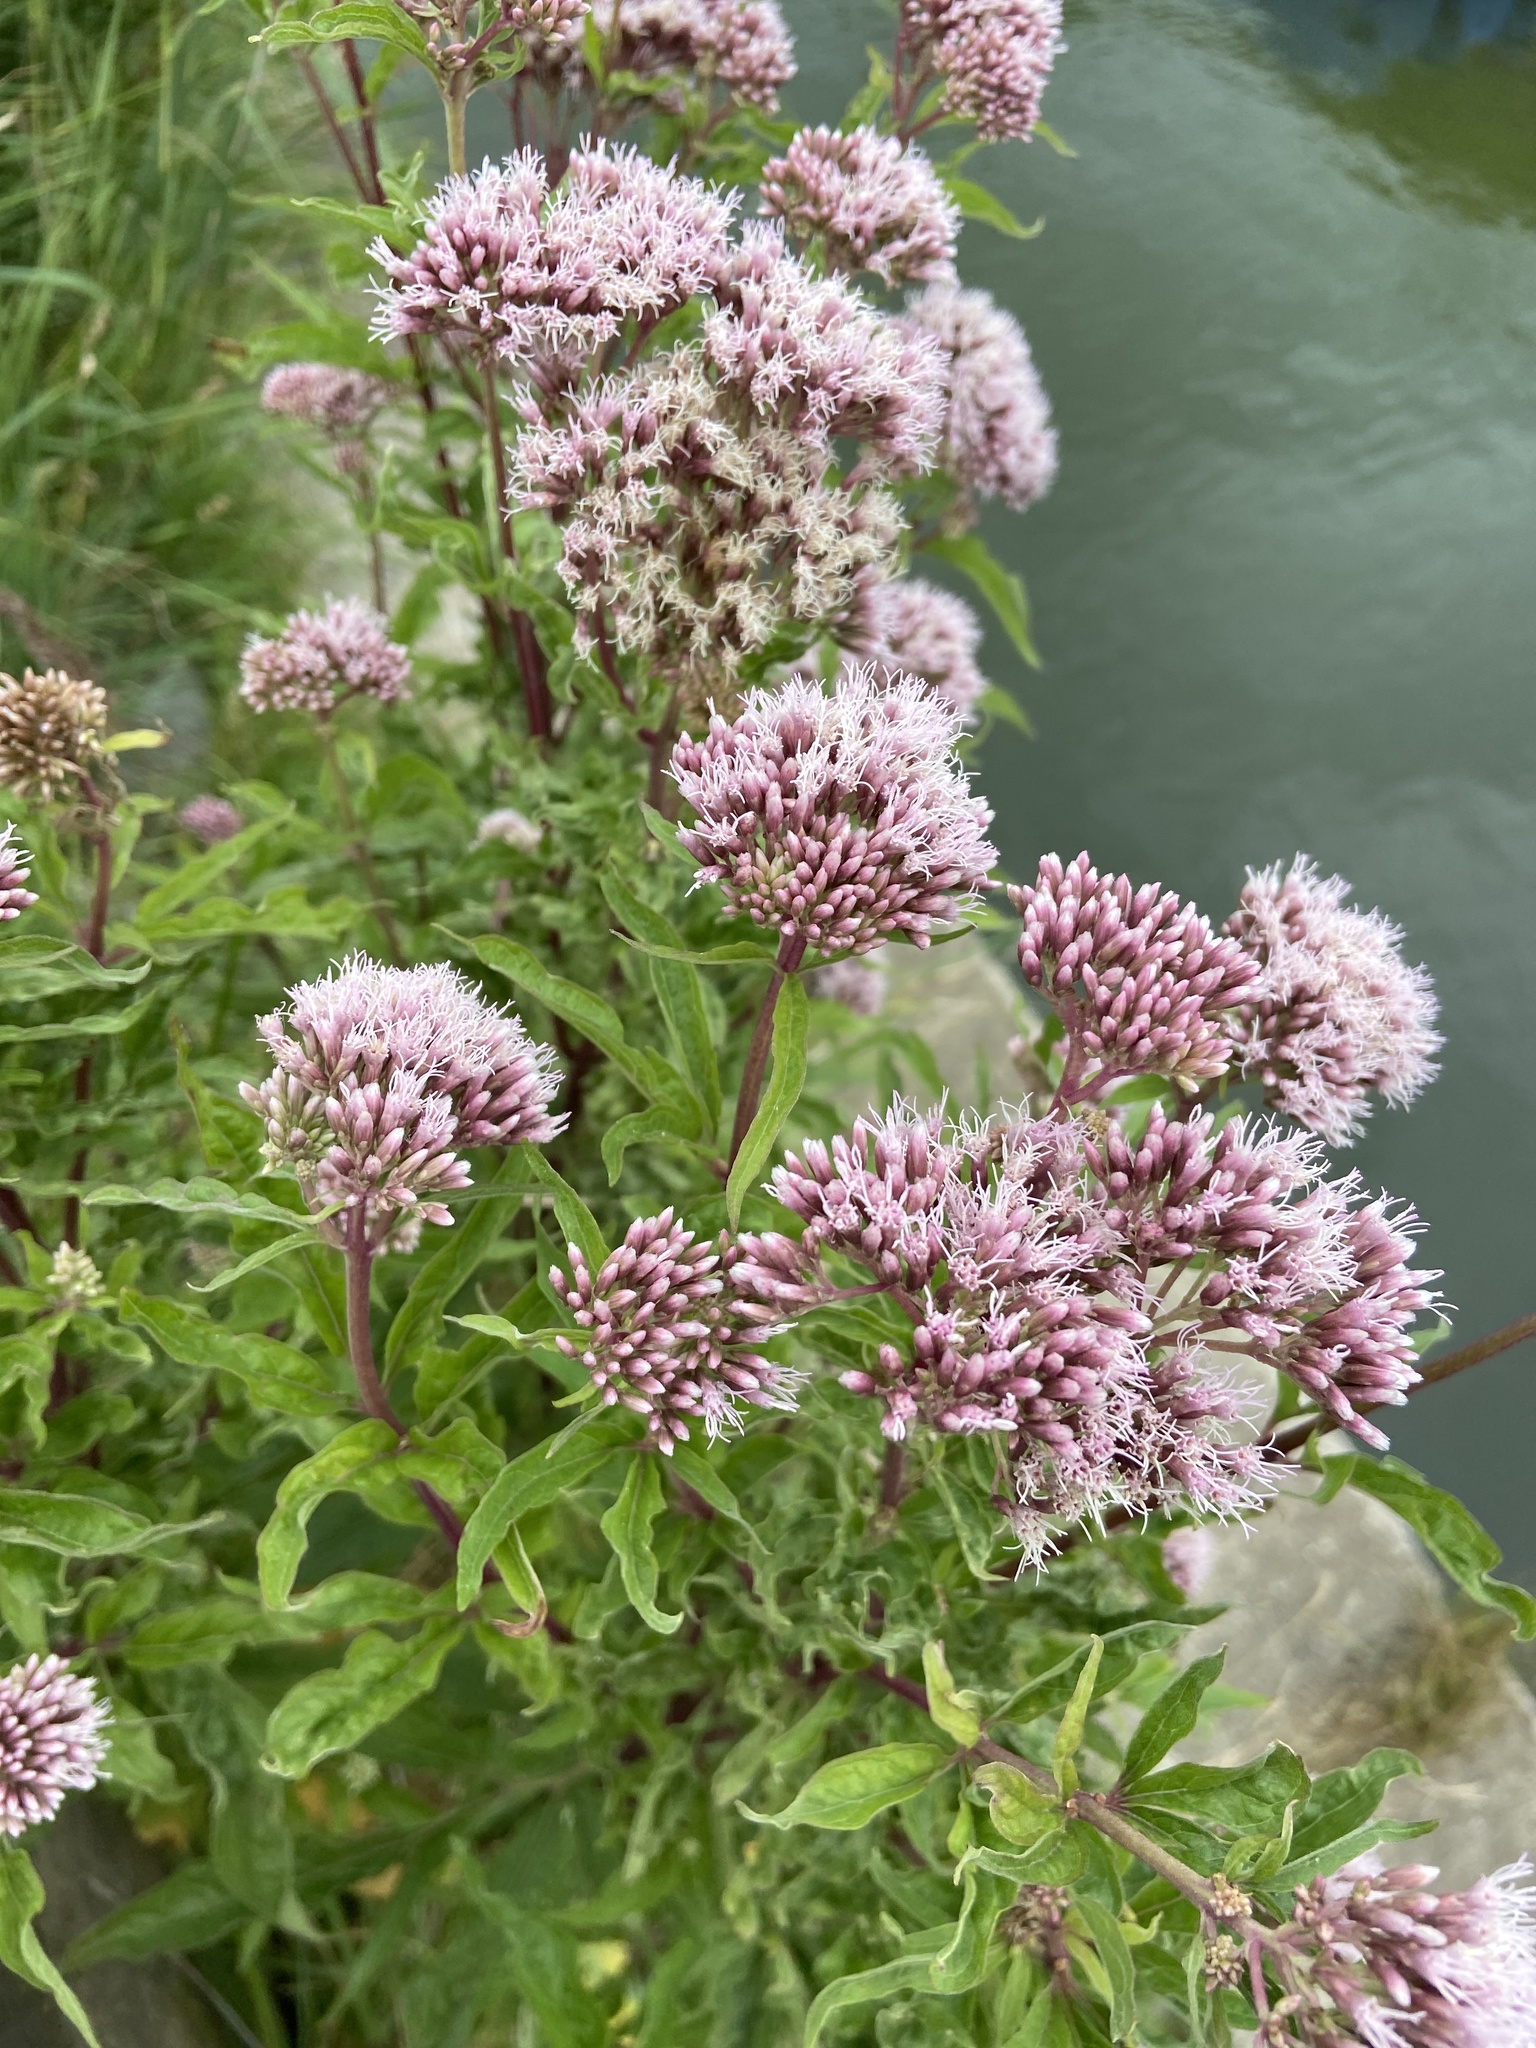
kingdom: Plantae
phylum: Tracheophyta
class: Magnoliopsida
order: Asterales
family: Asteraceae
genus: Eupatorium
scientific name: Eupatorium cannabinum
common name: Hemp-agrimony
